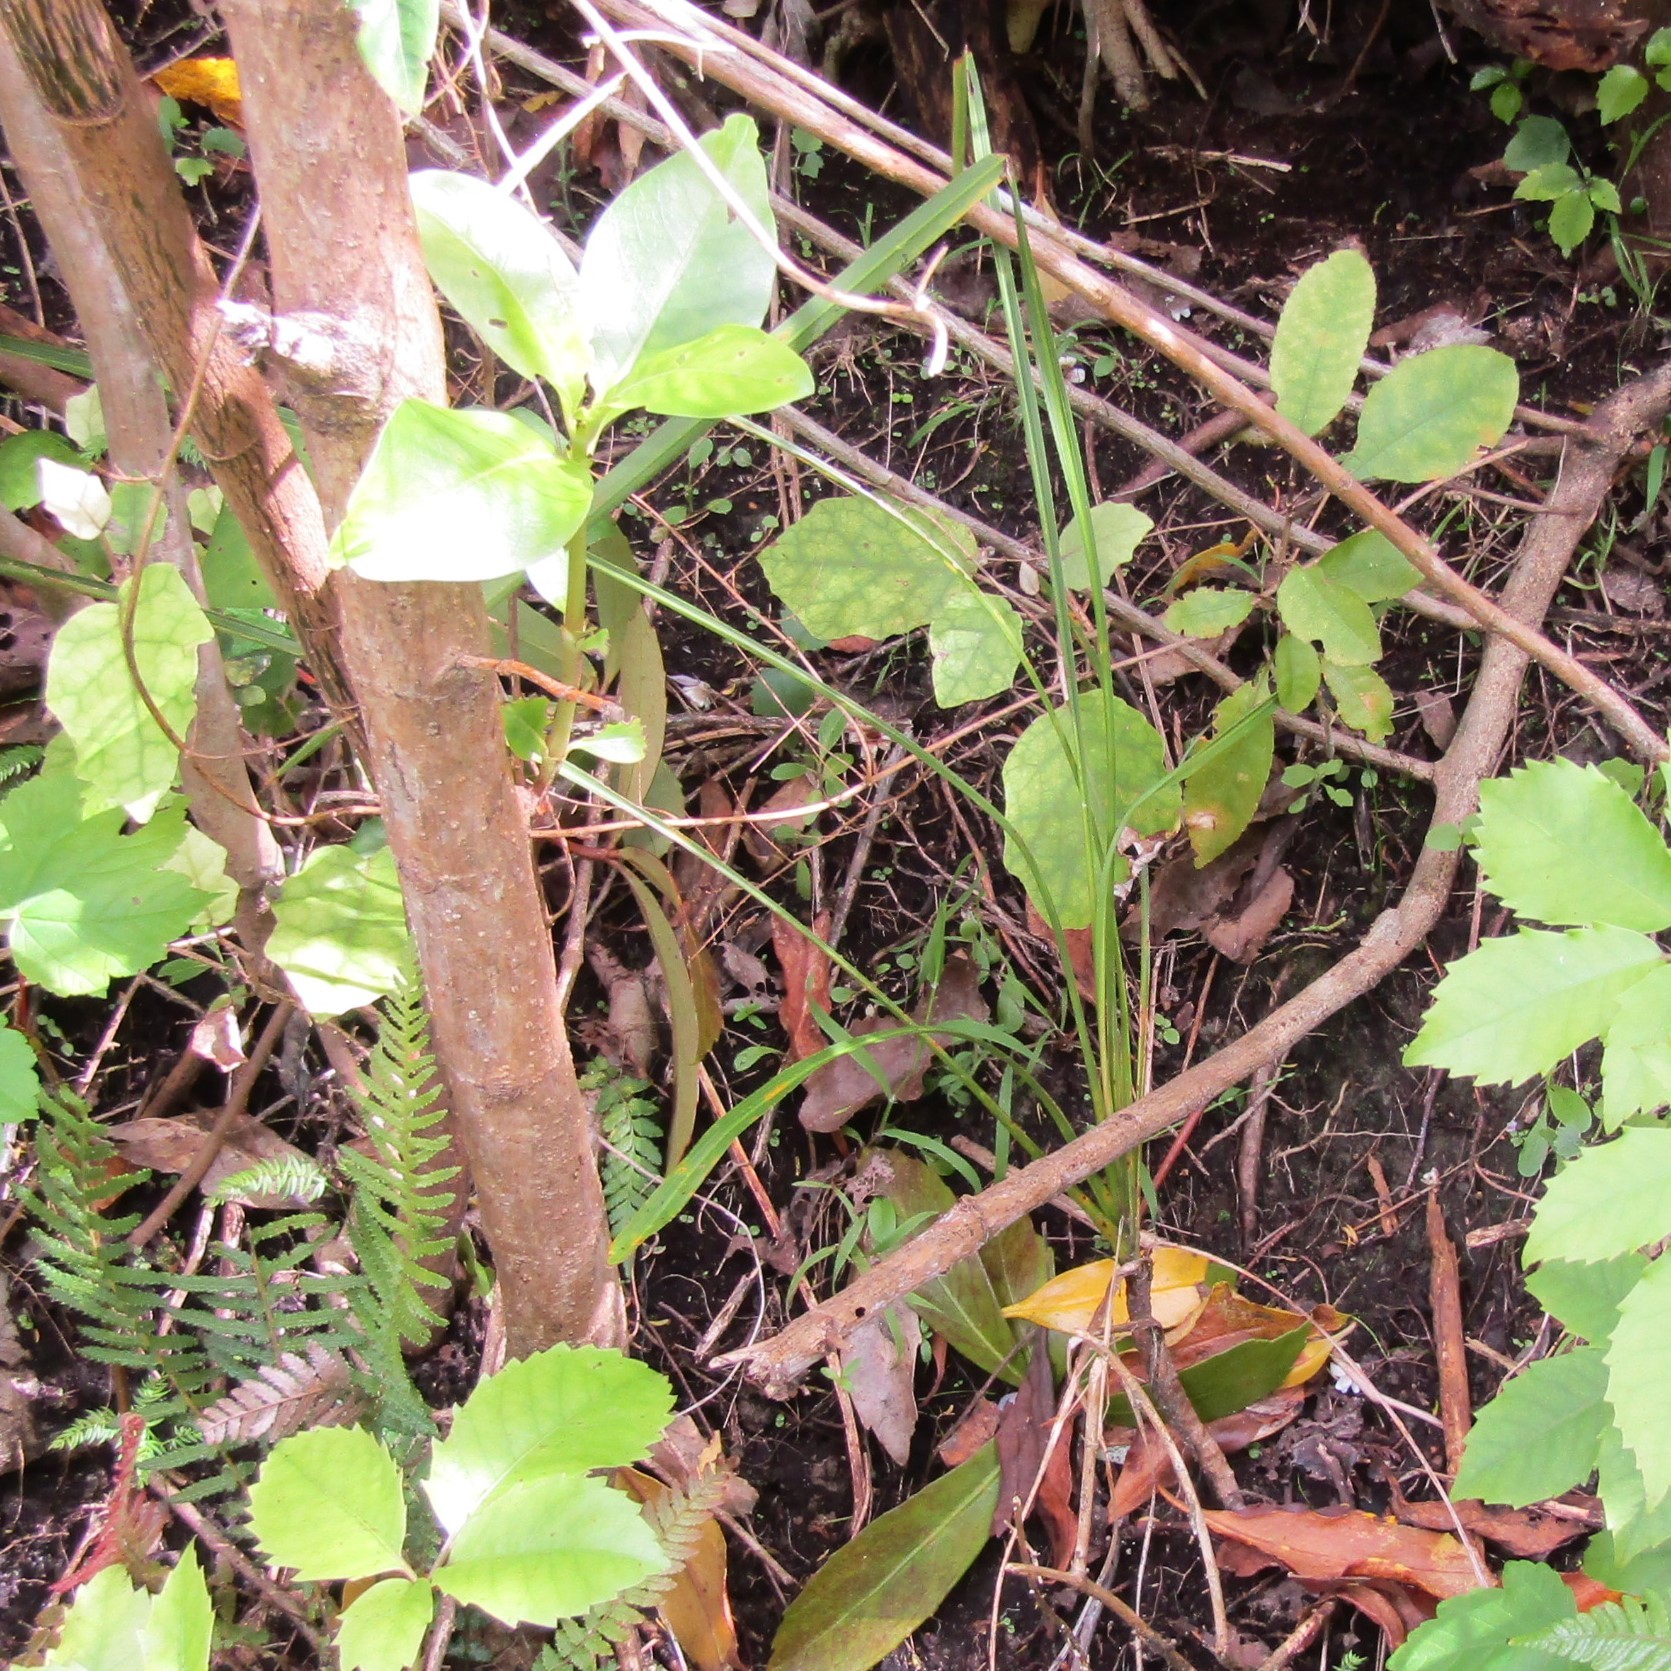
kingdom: Plantae
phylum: Tracheophyta
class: Liliopsida
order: Asparagales
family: Asparagaceae
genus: Cordyline
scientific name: Cordyline australis
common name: Cabbage-palm
